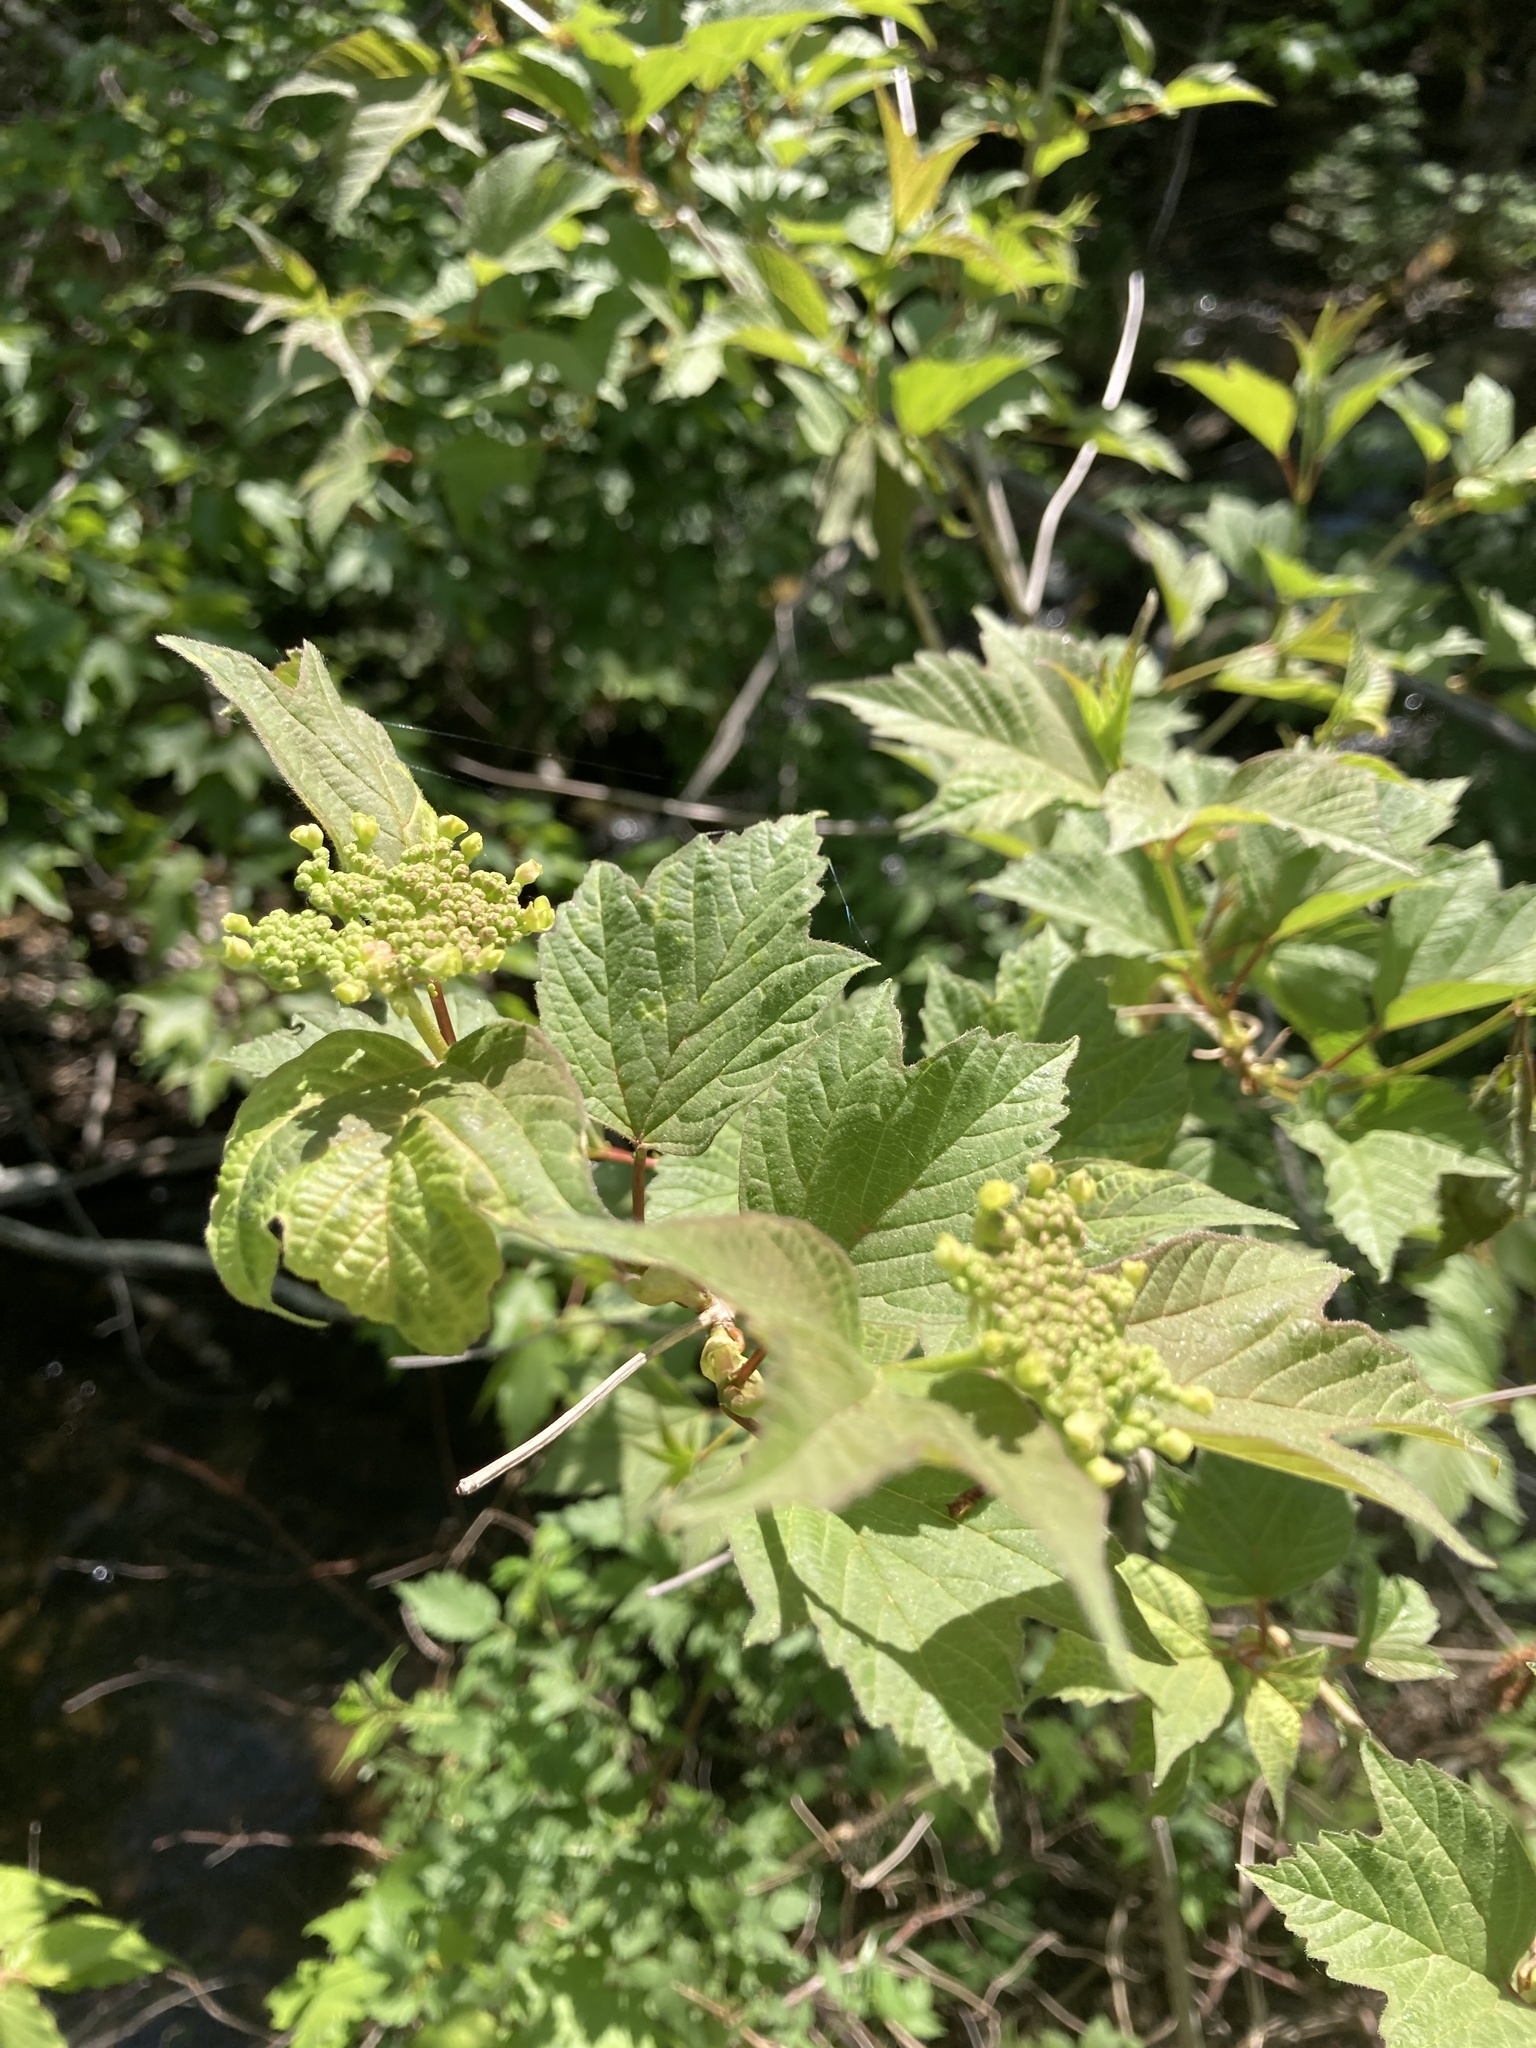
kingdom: Plantae
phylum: Tracheophyta
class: Magnoliopsida
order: Dipsacales
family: Viburnaceae
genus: Viburnum
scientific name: Viburnum acerifolium
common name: Dockmackie
